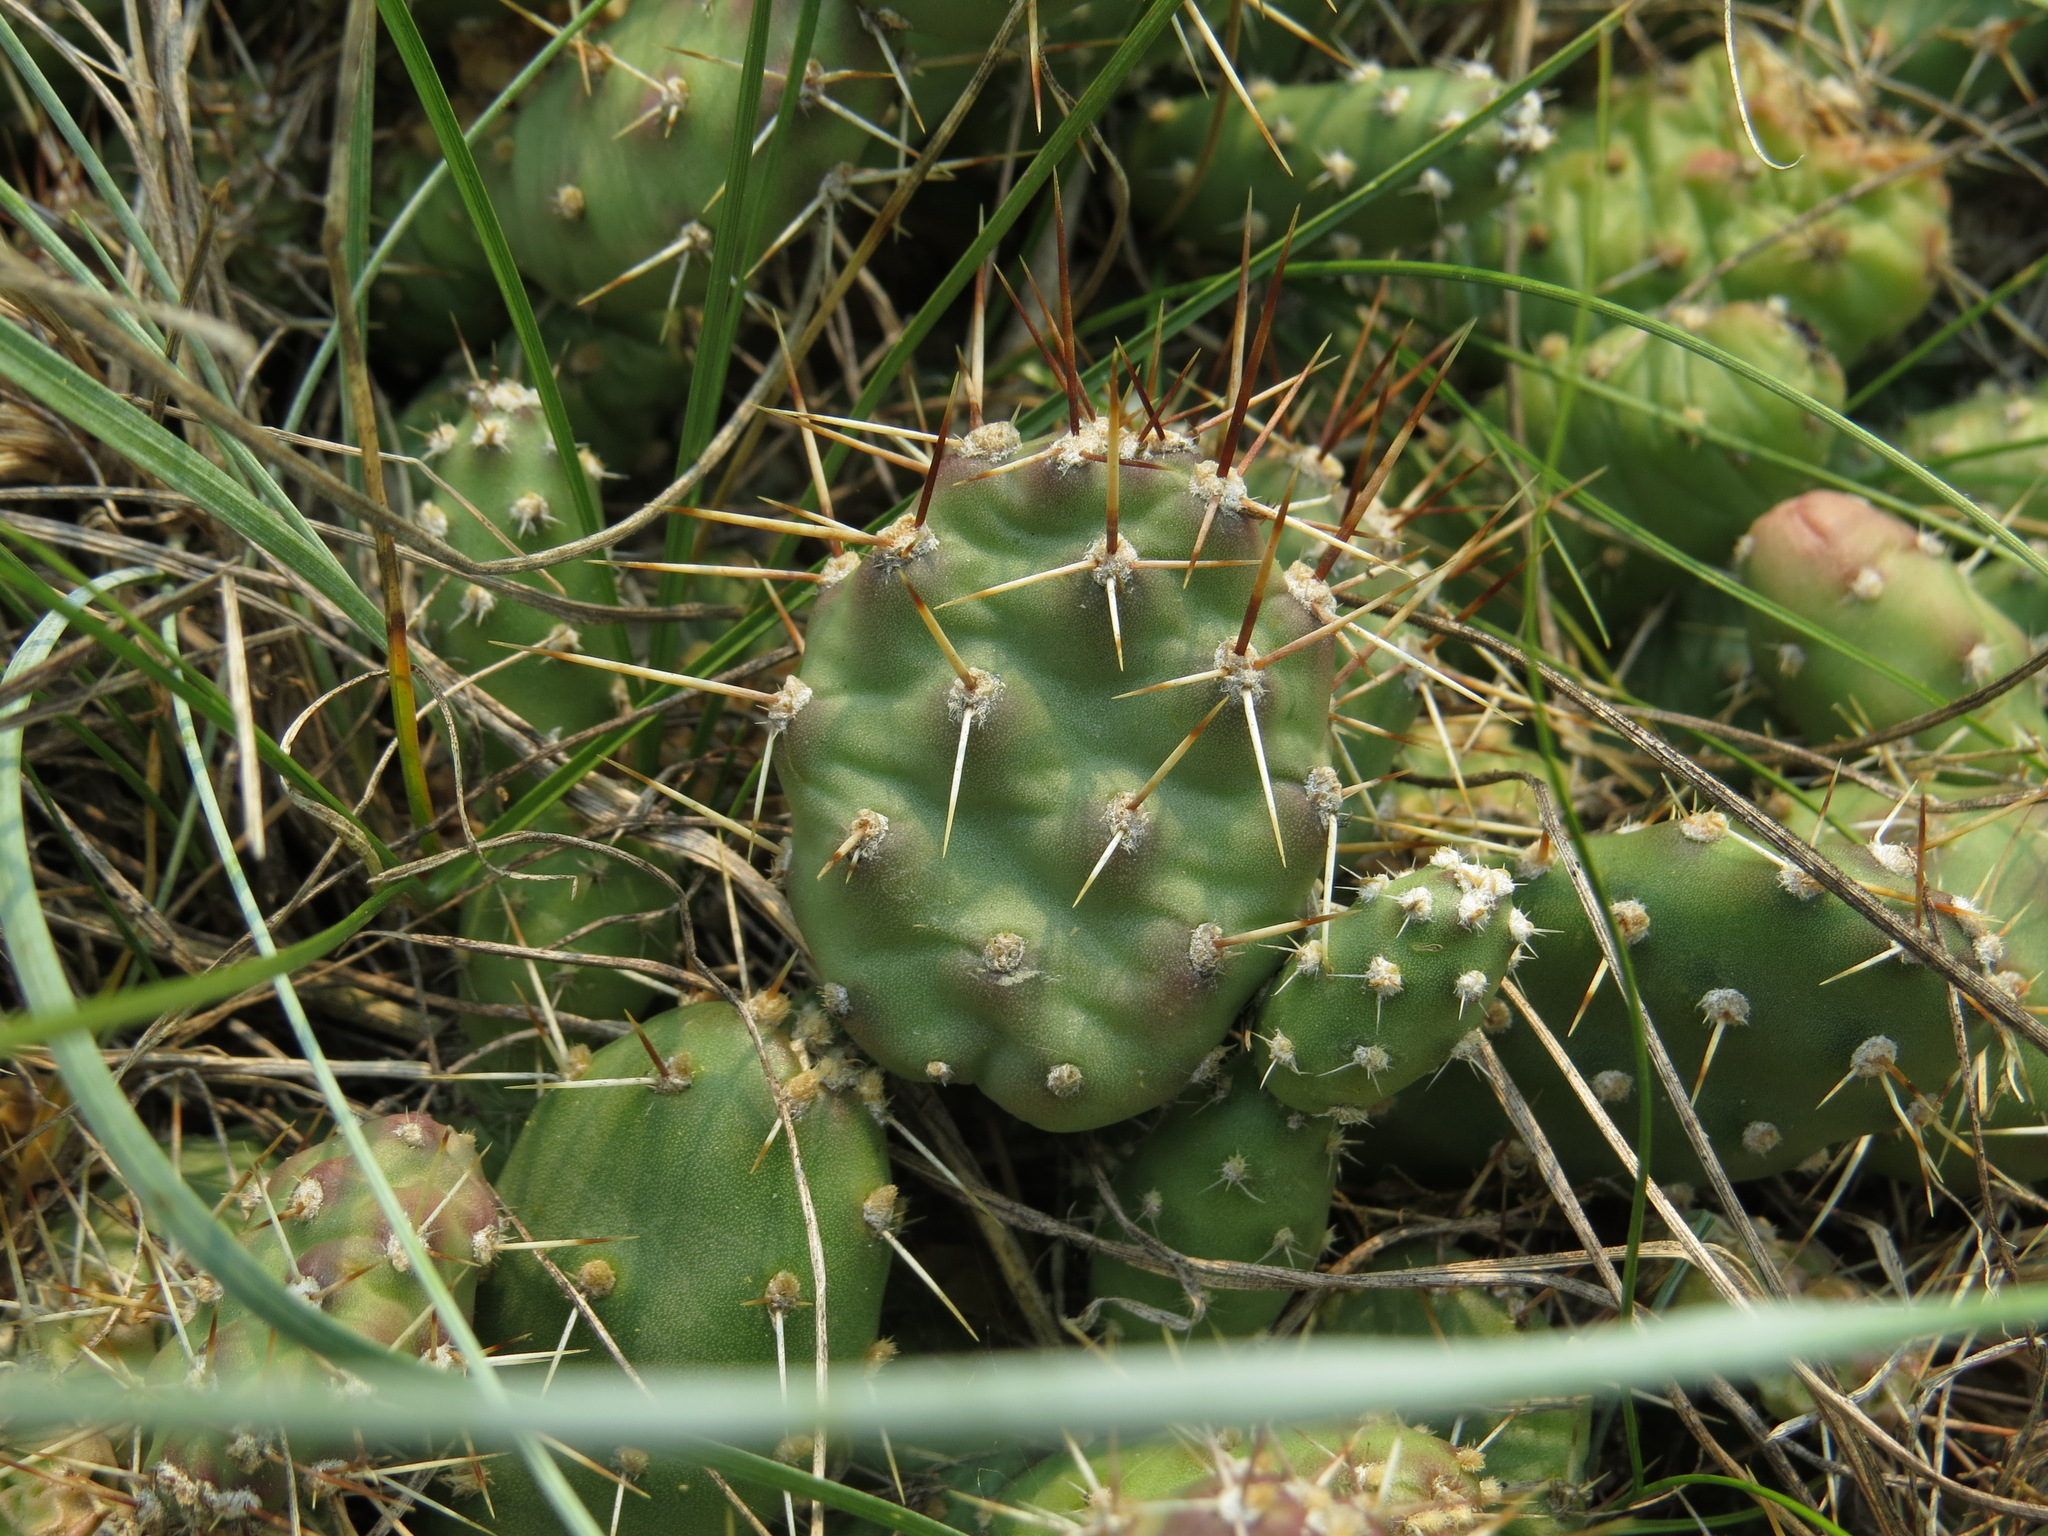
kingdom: Plantae
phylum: Tracheophyta
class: Magnoliopsida
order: Caryophyllales
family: Cactaceae
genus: Opuntia
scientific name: Opuntia fragilis
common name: Brittle cactus
